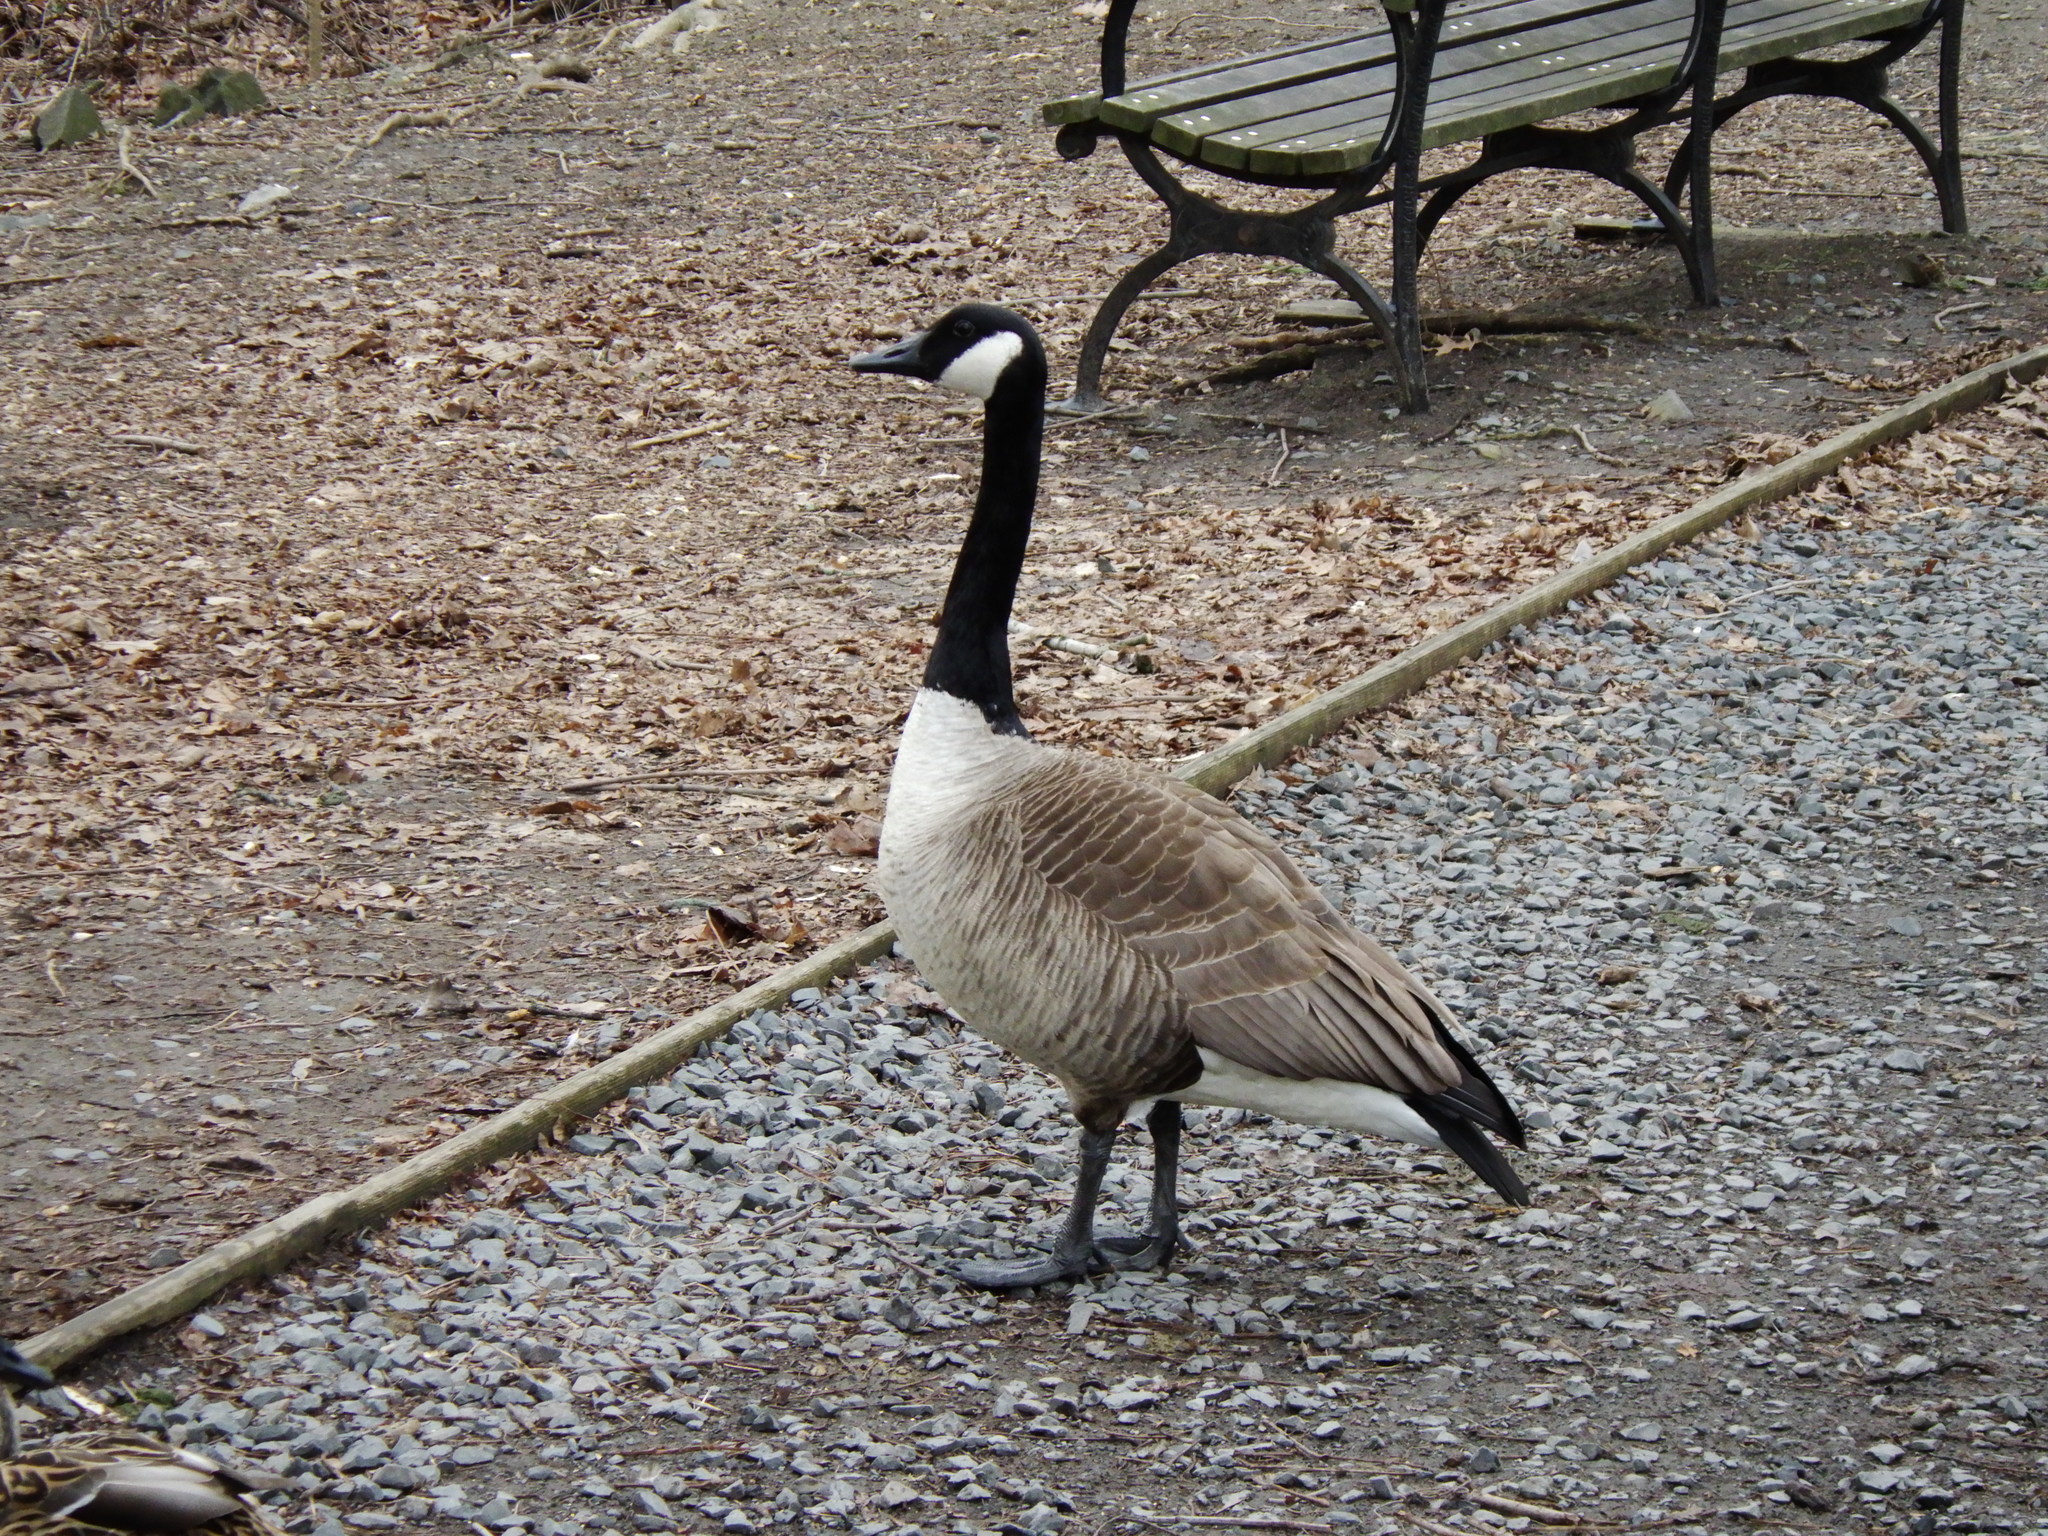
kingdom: Animalia
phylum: Chordata
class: Aves
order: Anseriformes
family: Anatidae
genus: Branta
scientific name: Branta canadensis
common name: Canada goose
